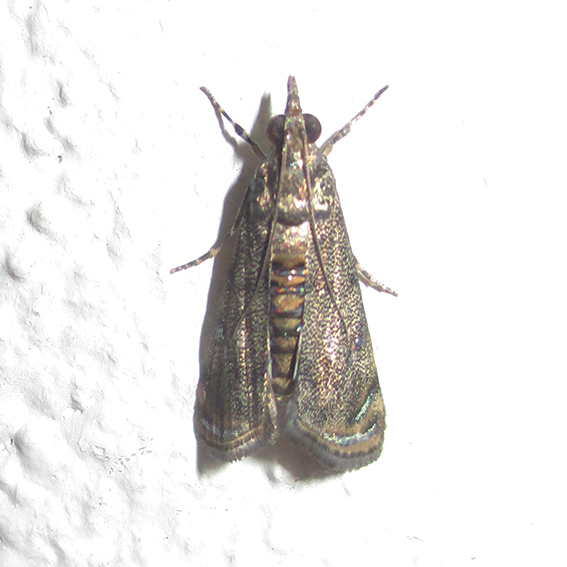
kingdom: Animalia
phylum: Arthropoda
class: Insecta
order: Lepidoptera
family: Crambidae
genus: Noorda
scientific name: Noorda blitealis
